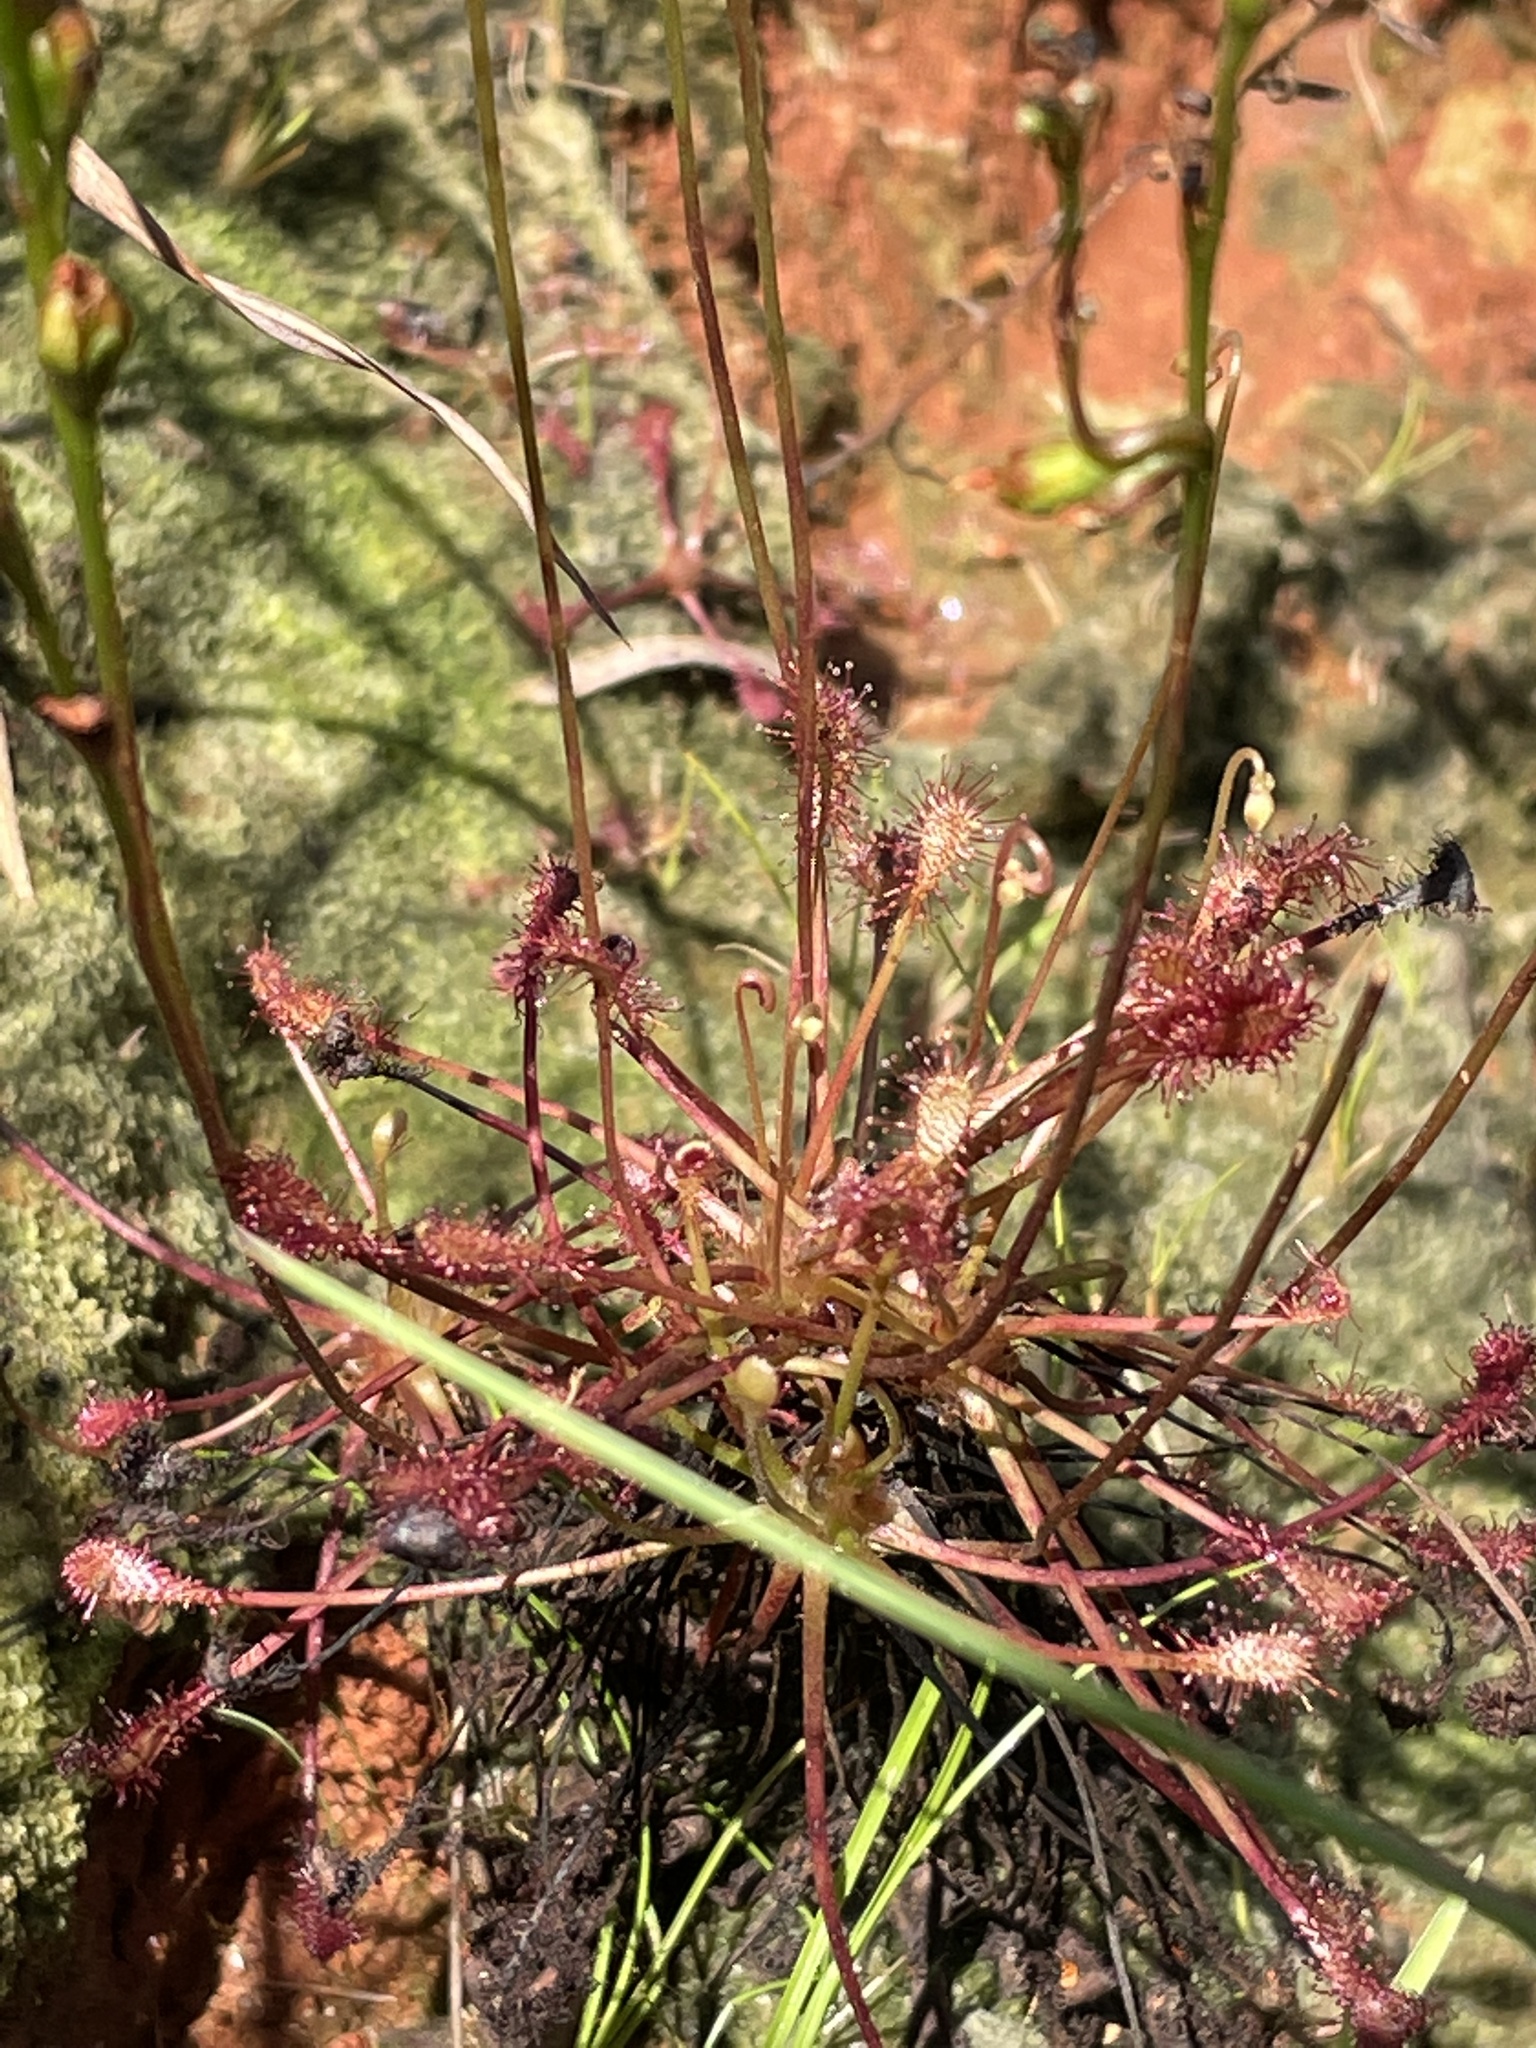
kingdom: Plantae
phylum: Tracheophyta
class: Magnoliopsida
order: Caryophyllales
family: Droseraceae
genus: Drosera
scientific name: Drosera intermedia
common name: Oblong-leaved sundew
